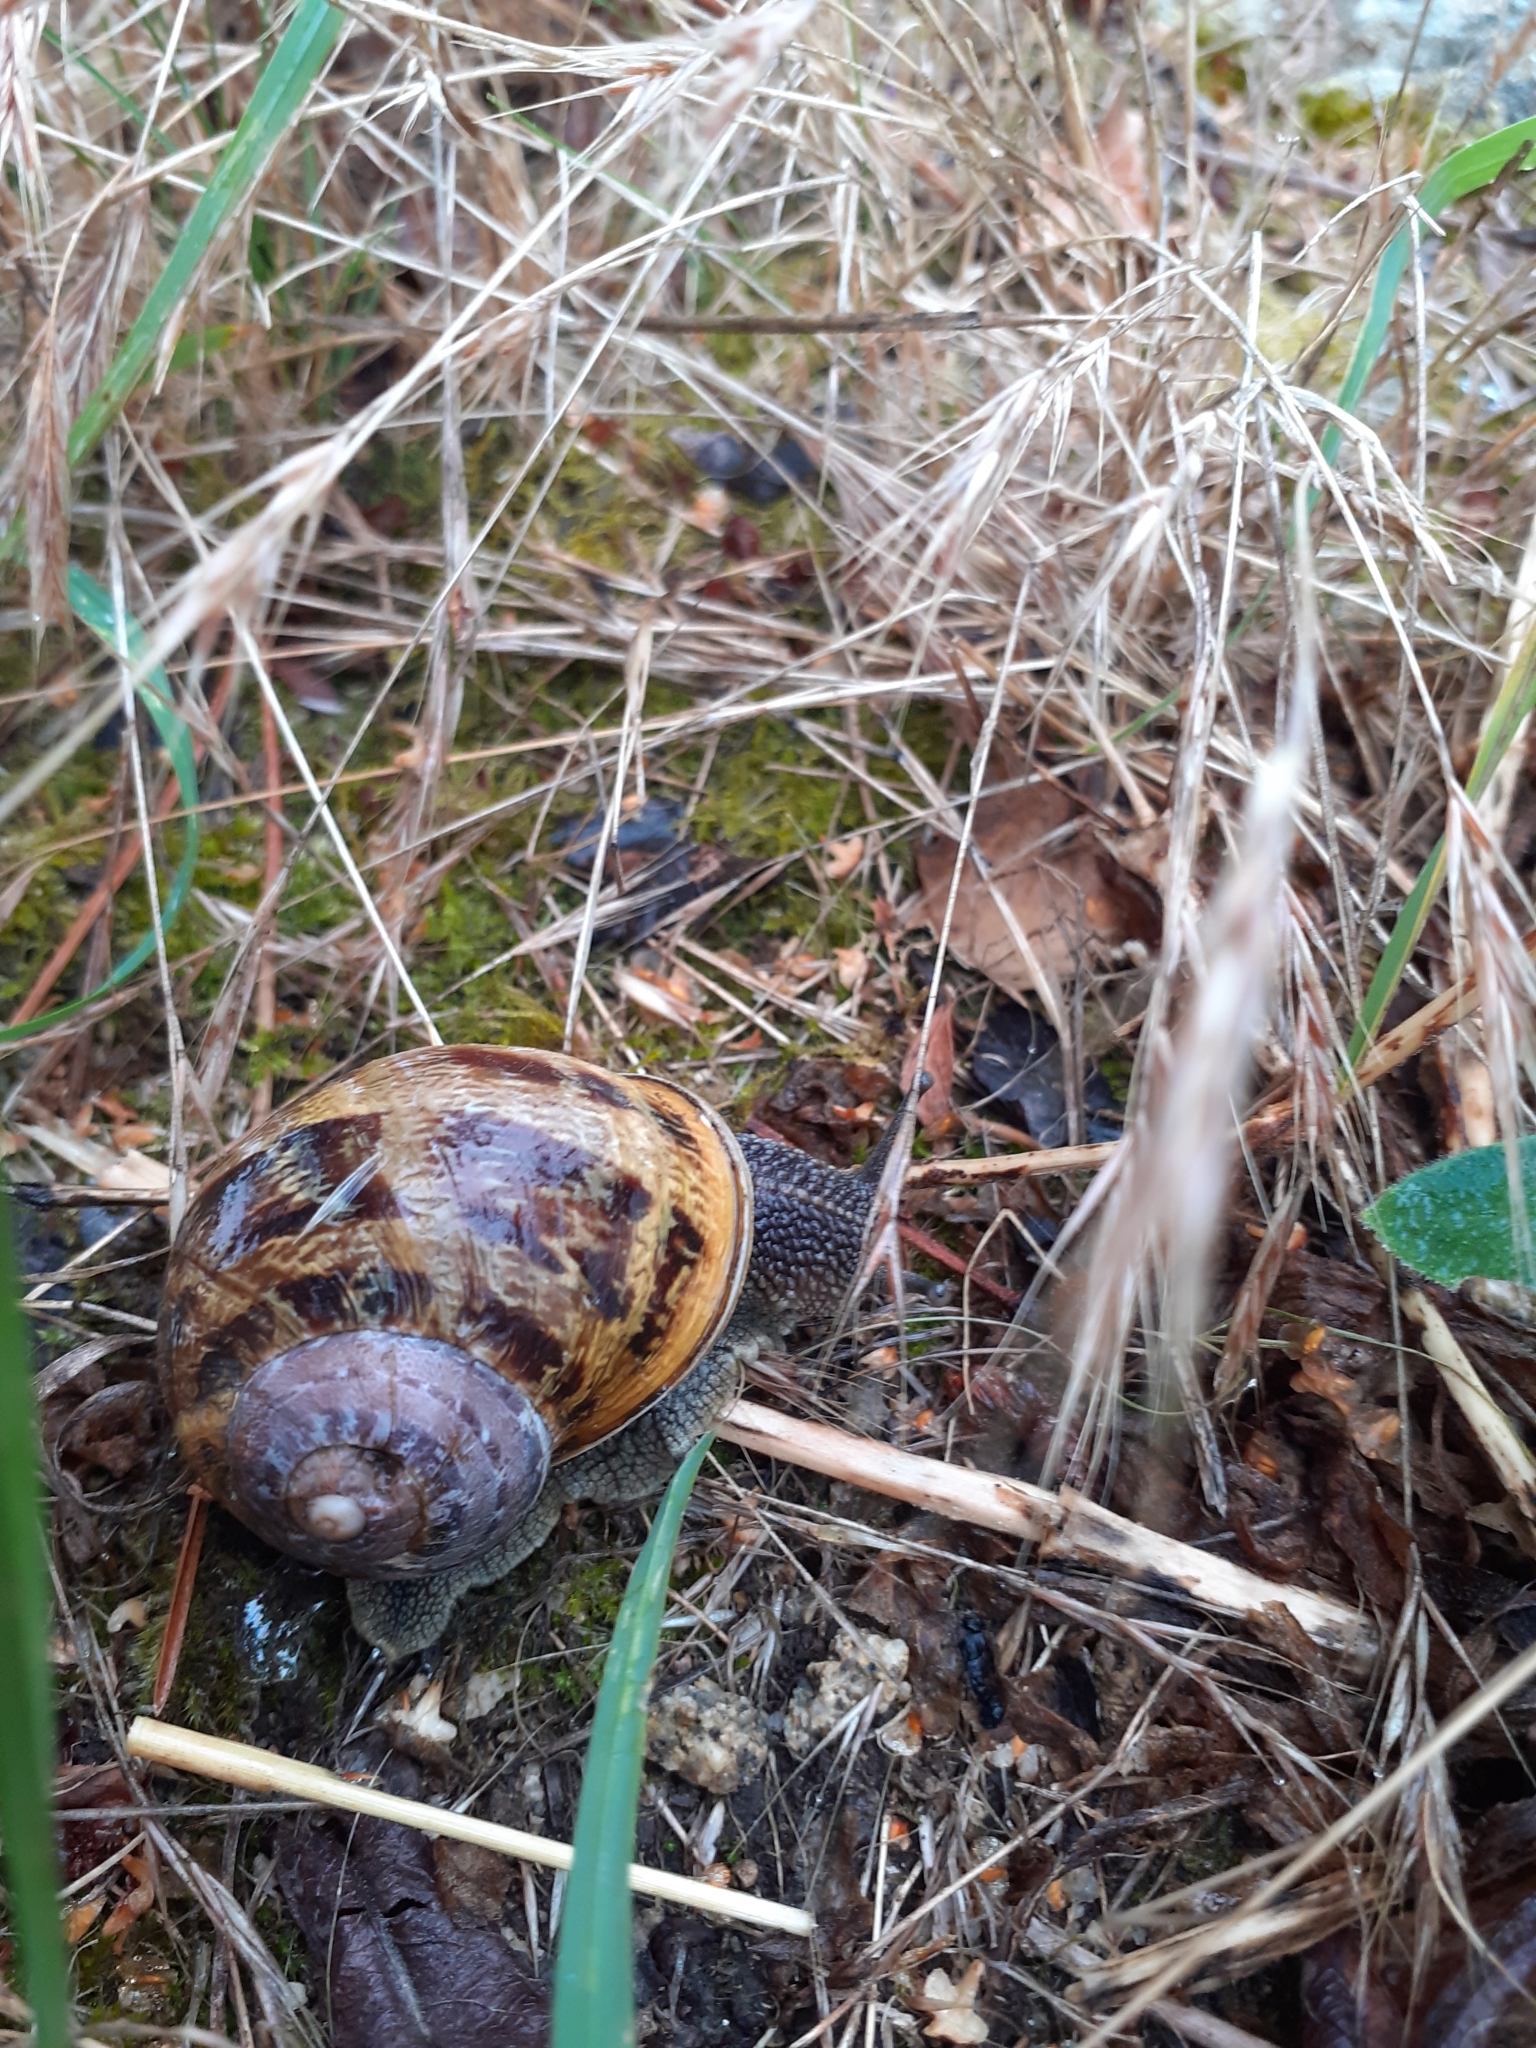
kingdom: Animalia
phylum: Mollusca
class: Gastropoda
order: Stylommatophora
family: Helicidae
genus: Cornu
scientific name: Cornu aspersum
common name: Brown garden snail
